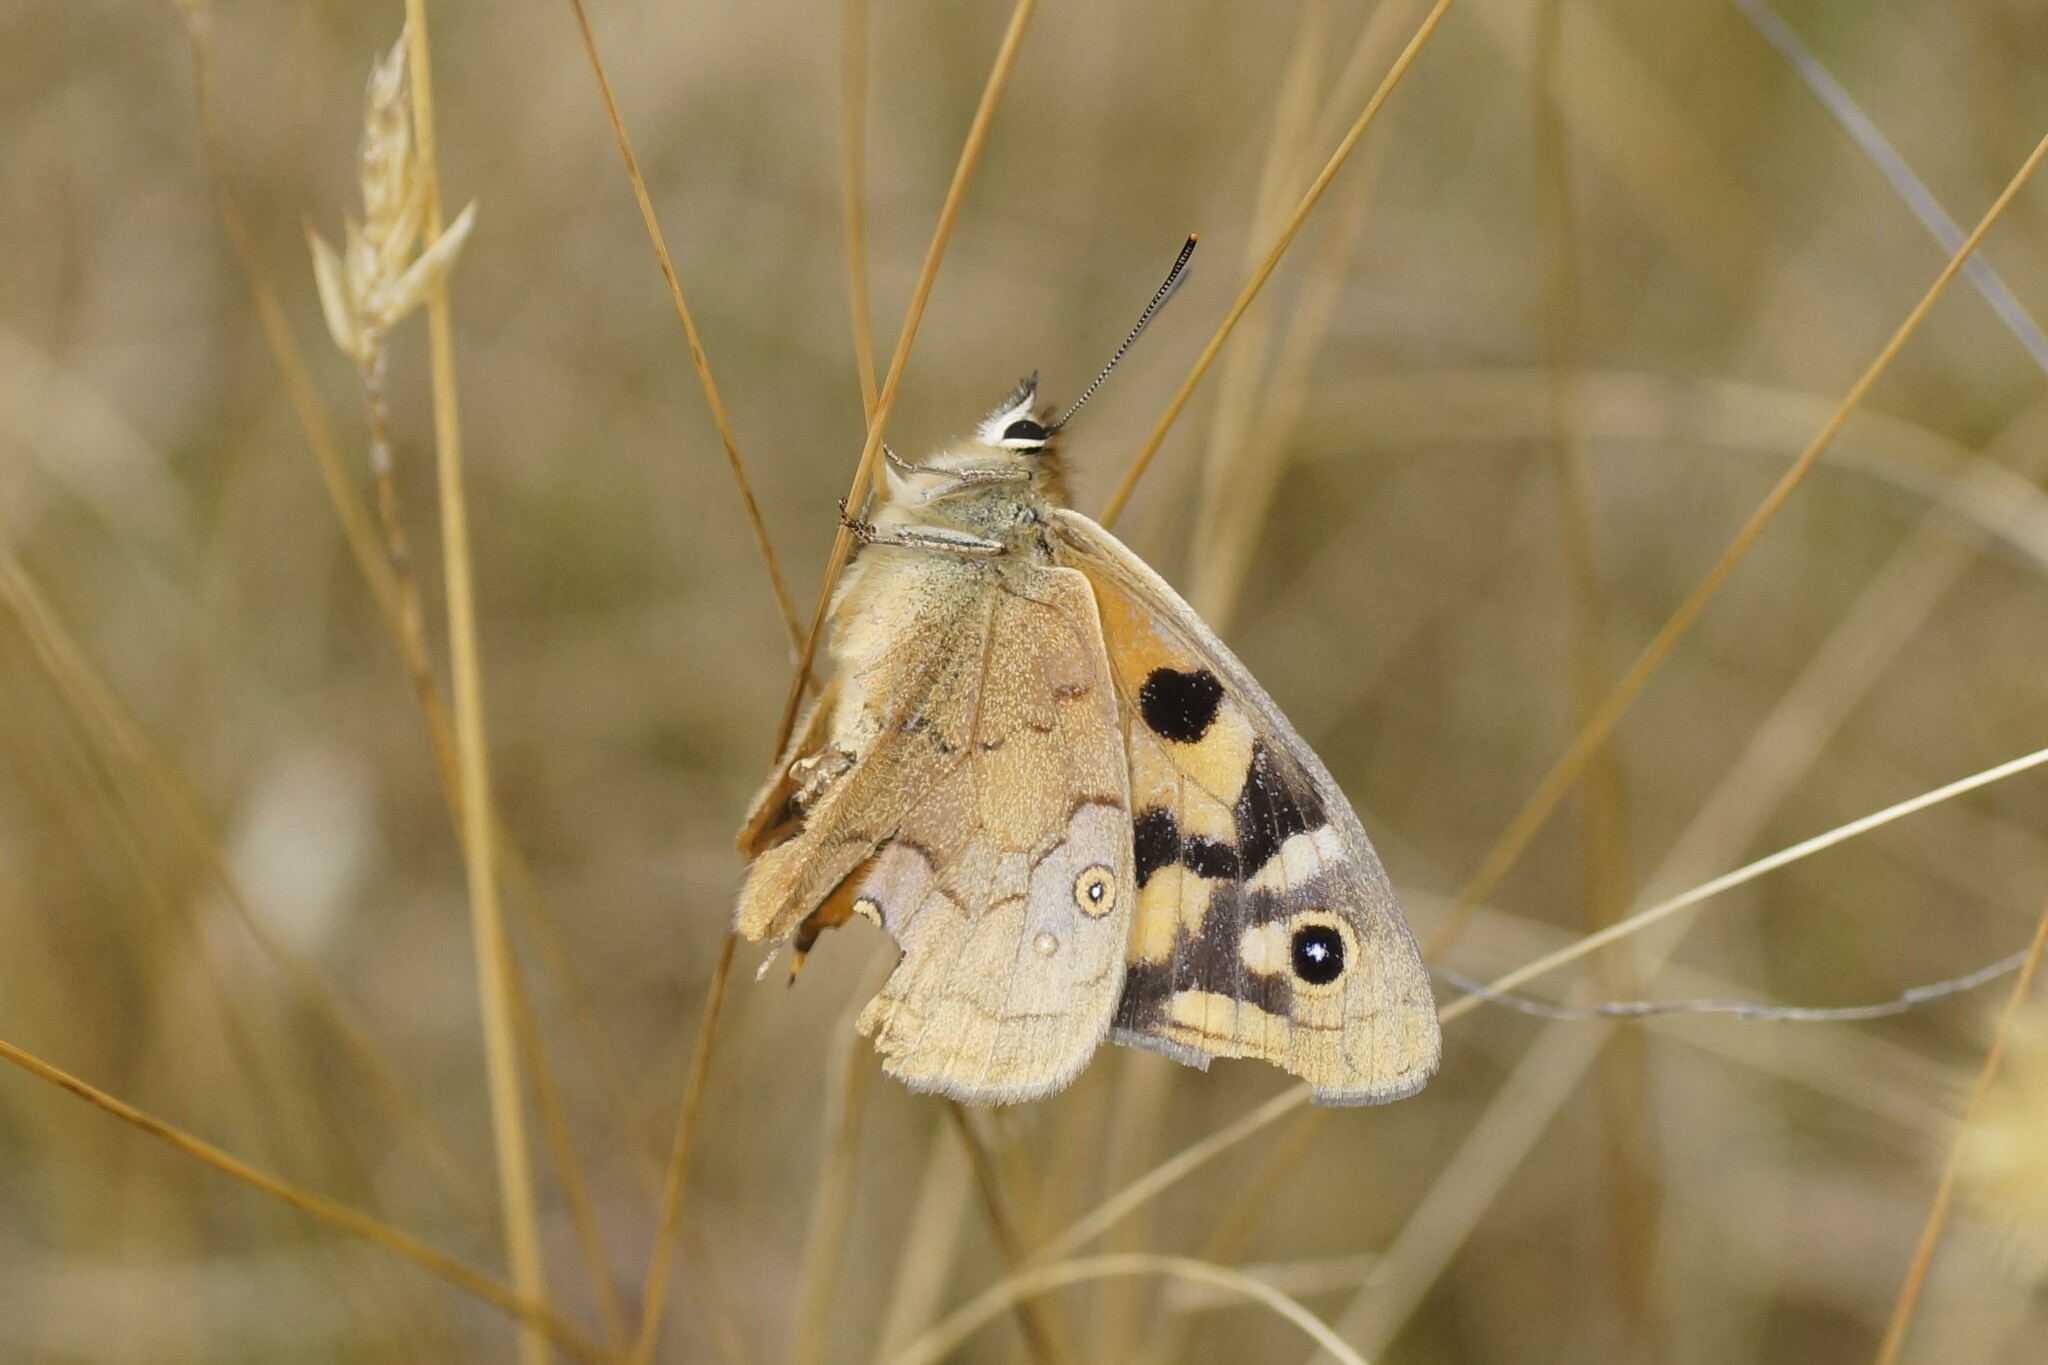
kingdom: Animalia
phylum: Arthropoda
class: Insecta
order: Lepidoptera
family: Nymphalidae
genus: Heteronympha
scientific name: Heteronympha penelope
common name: Shouldered brown
